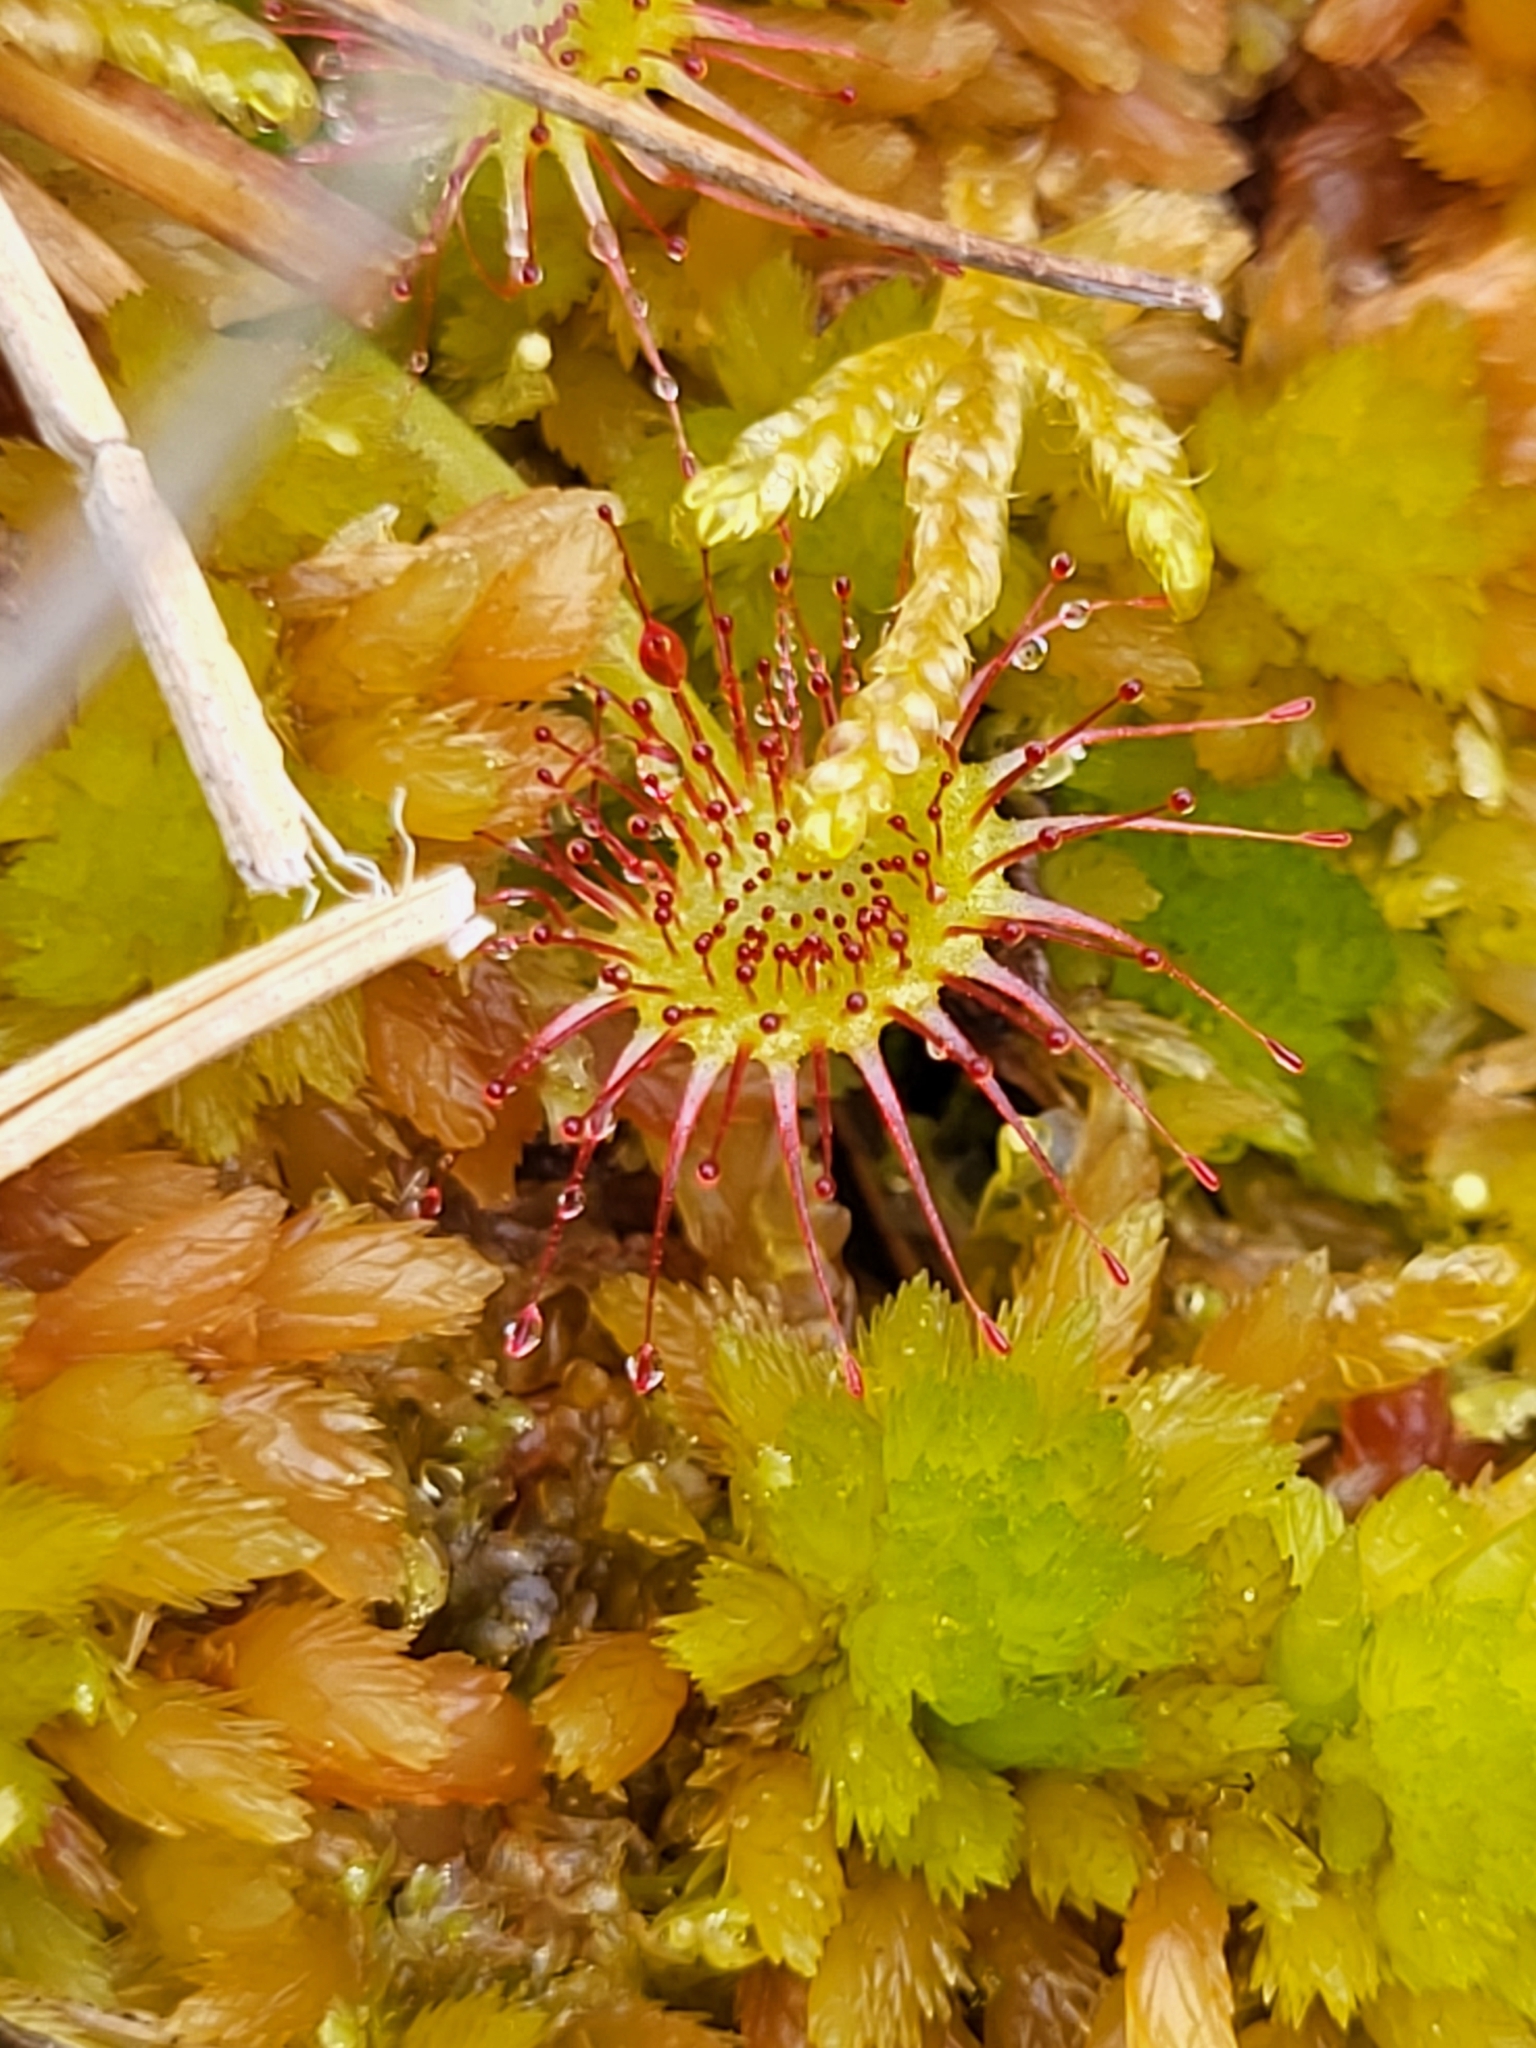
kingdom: Plantae
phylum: Tracheophyta
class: Magnoliopsida
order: Caryophyllales
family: Droseraceae
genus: Drosera
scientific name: Drosera rotundifolia
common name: Round-leaved sundew
